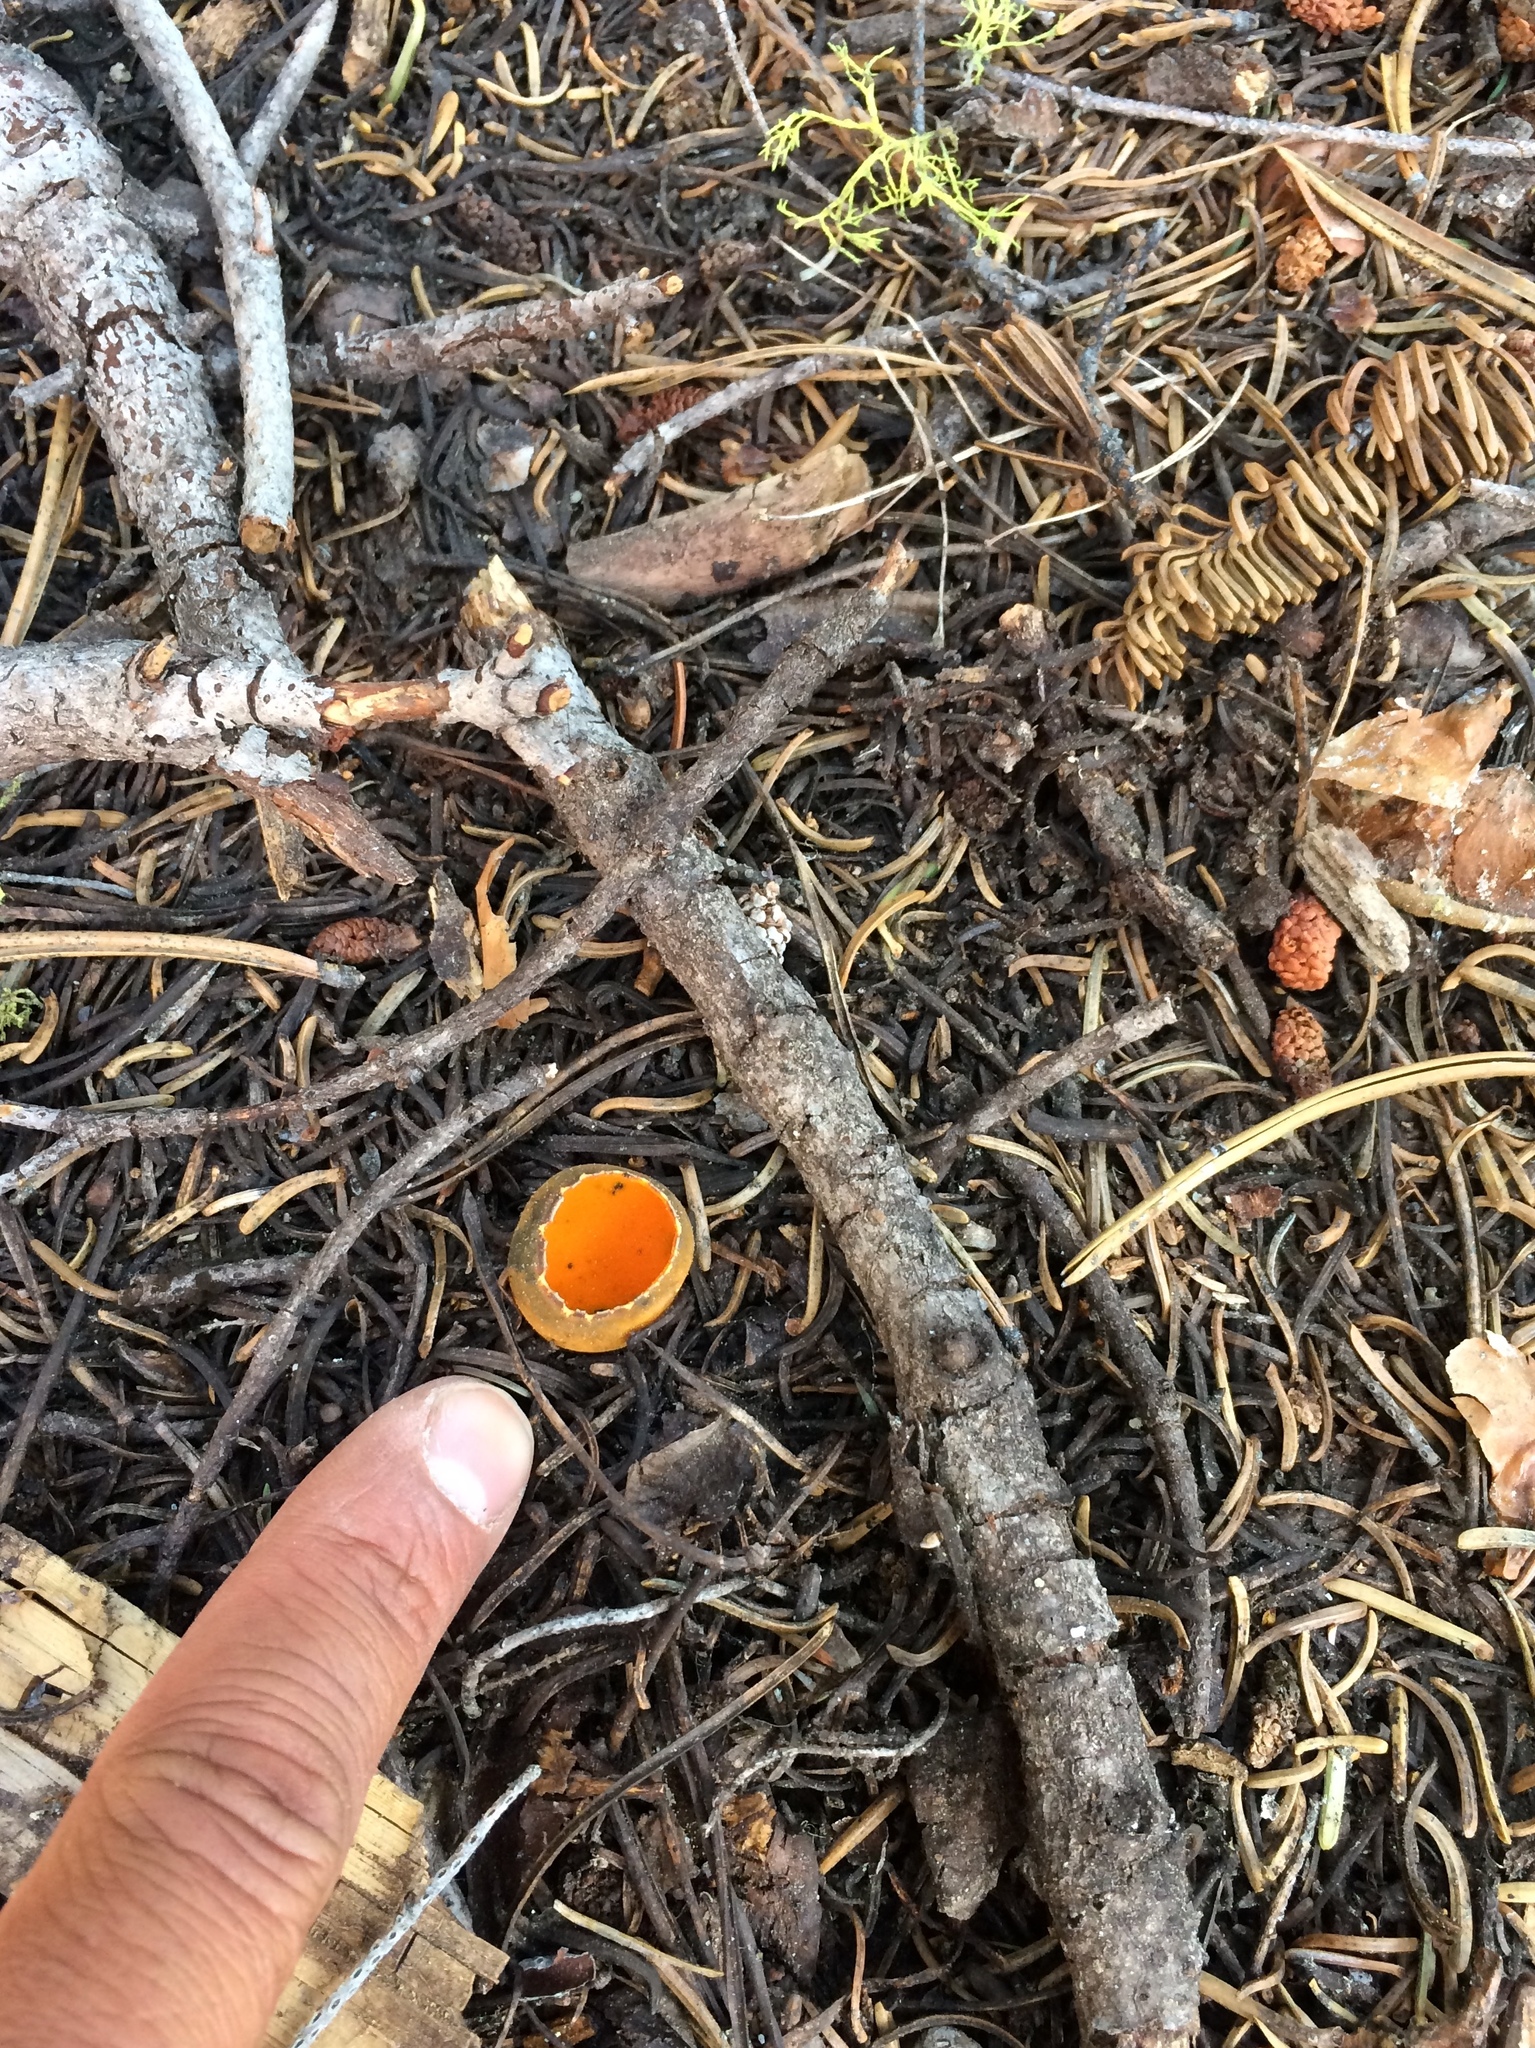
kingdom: Fungi
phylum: Ascomycota
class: Pezizomycetes
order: Pezizales
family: Caloscyphaceae
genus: Caloscypha
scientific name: Caloscypha fulgens
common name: Golden cup
